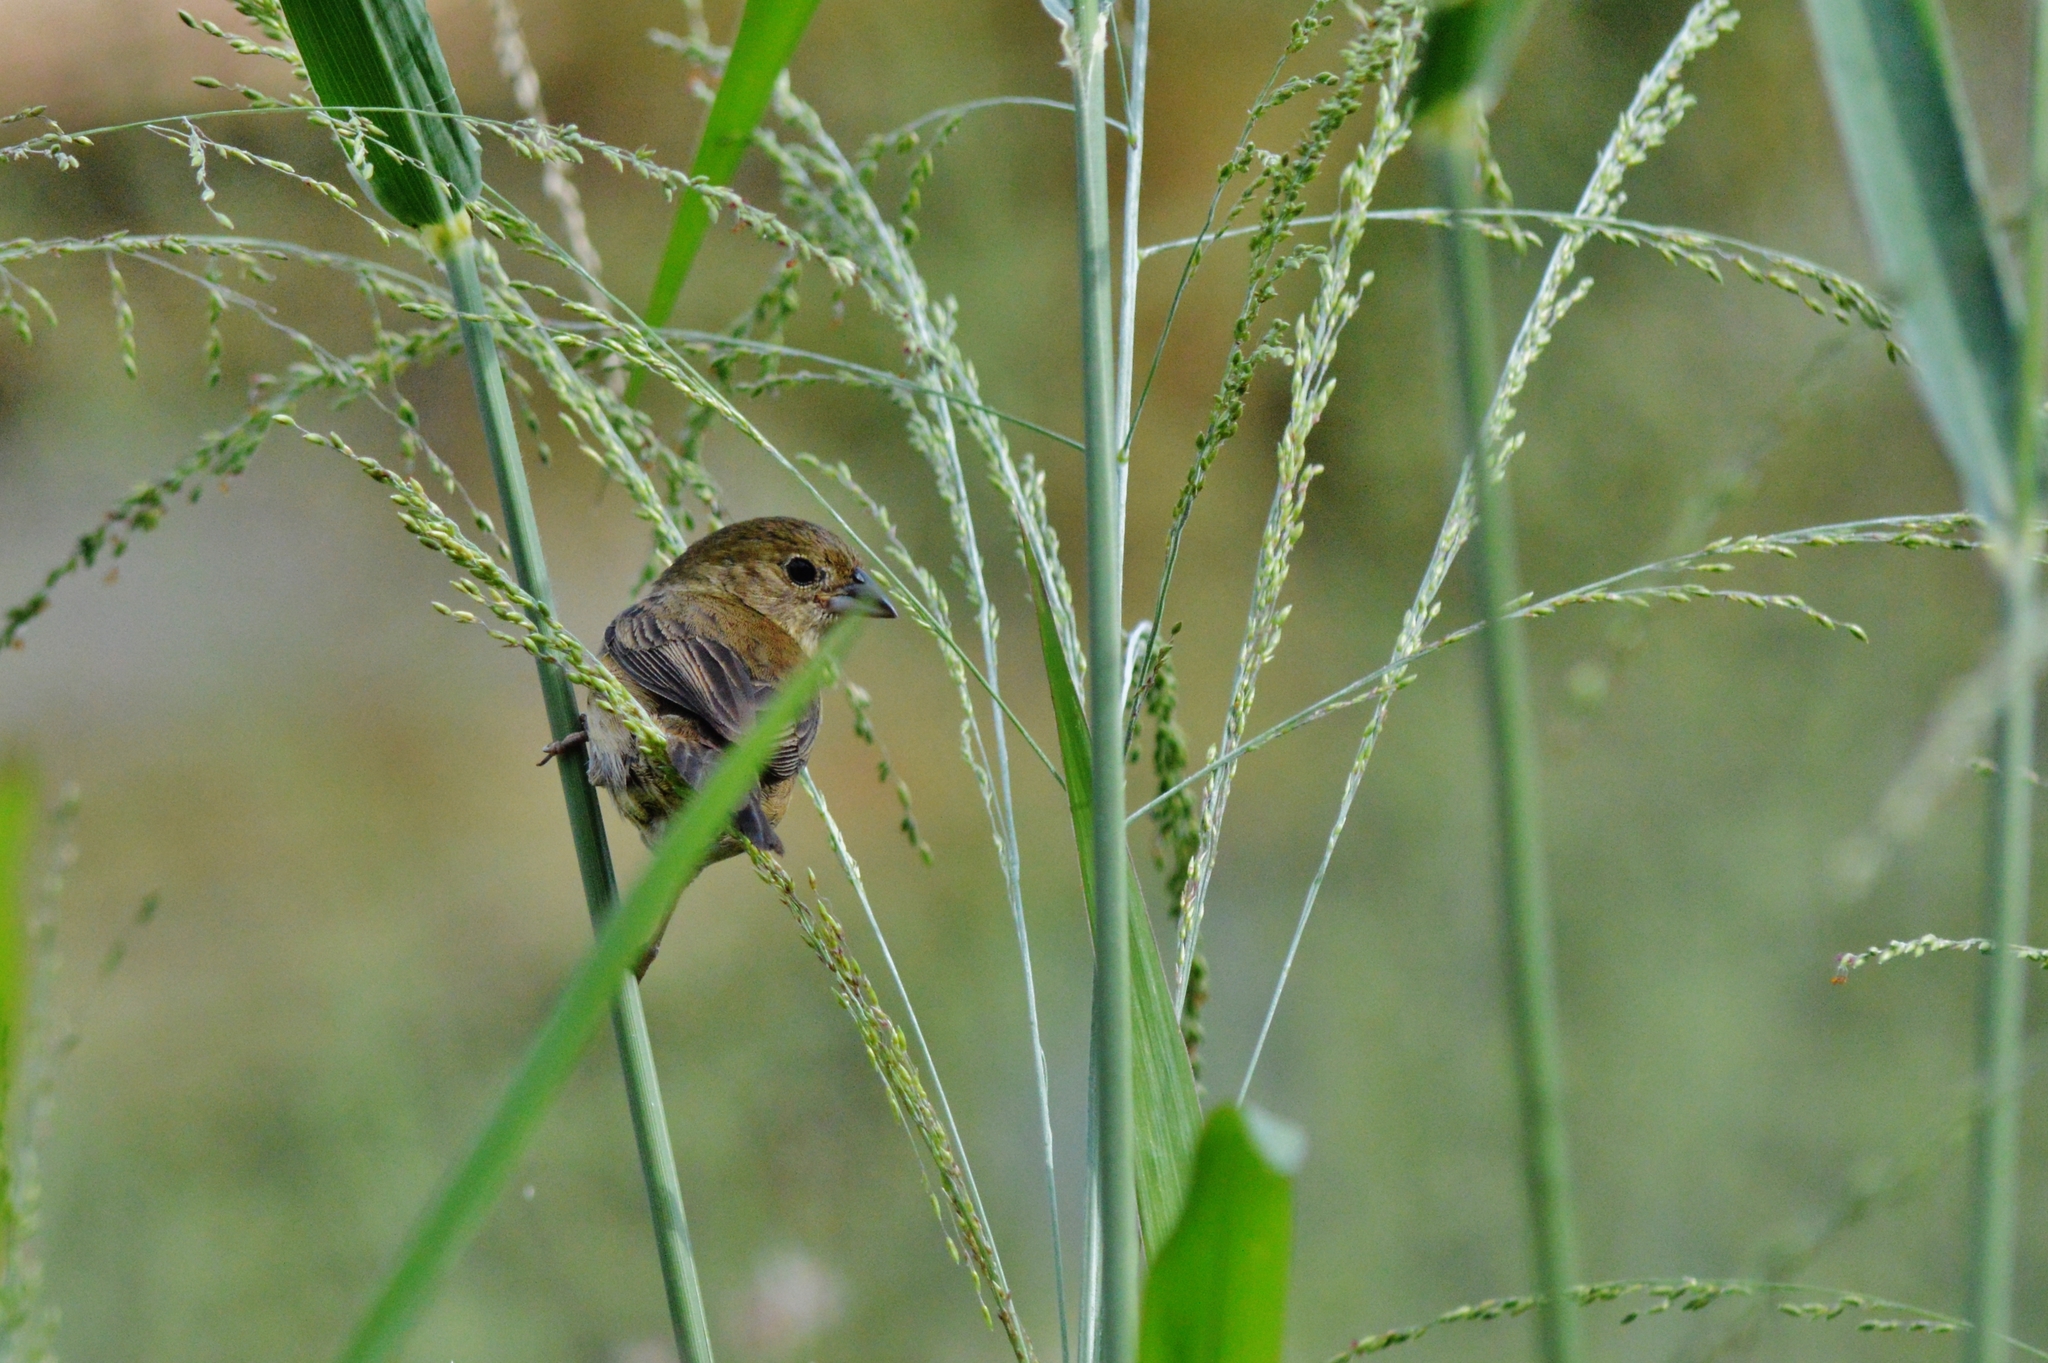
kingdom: Animalia
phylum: Chordata
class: Aves
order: Passeriformes
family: Thraupidae
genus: Volatinia
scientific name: Volatinia jacarina
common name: Blue-black grassquit
